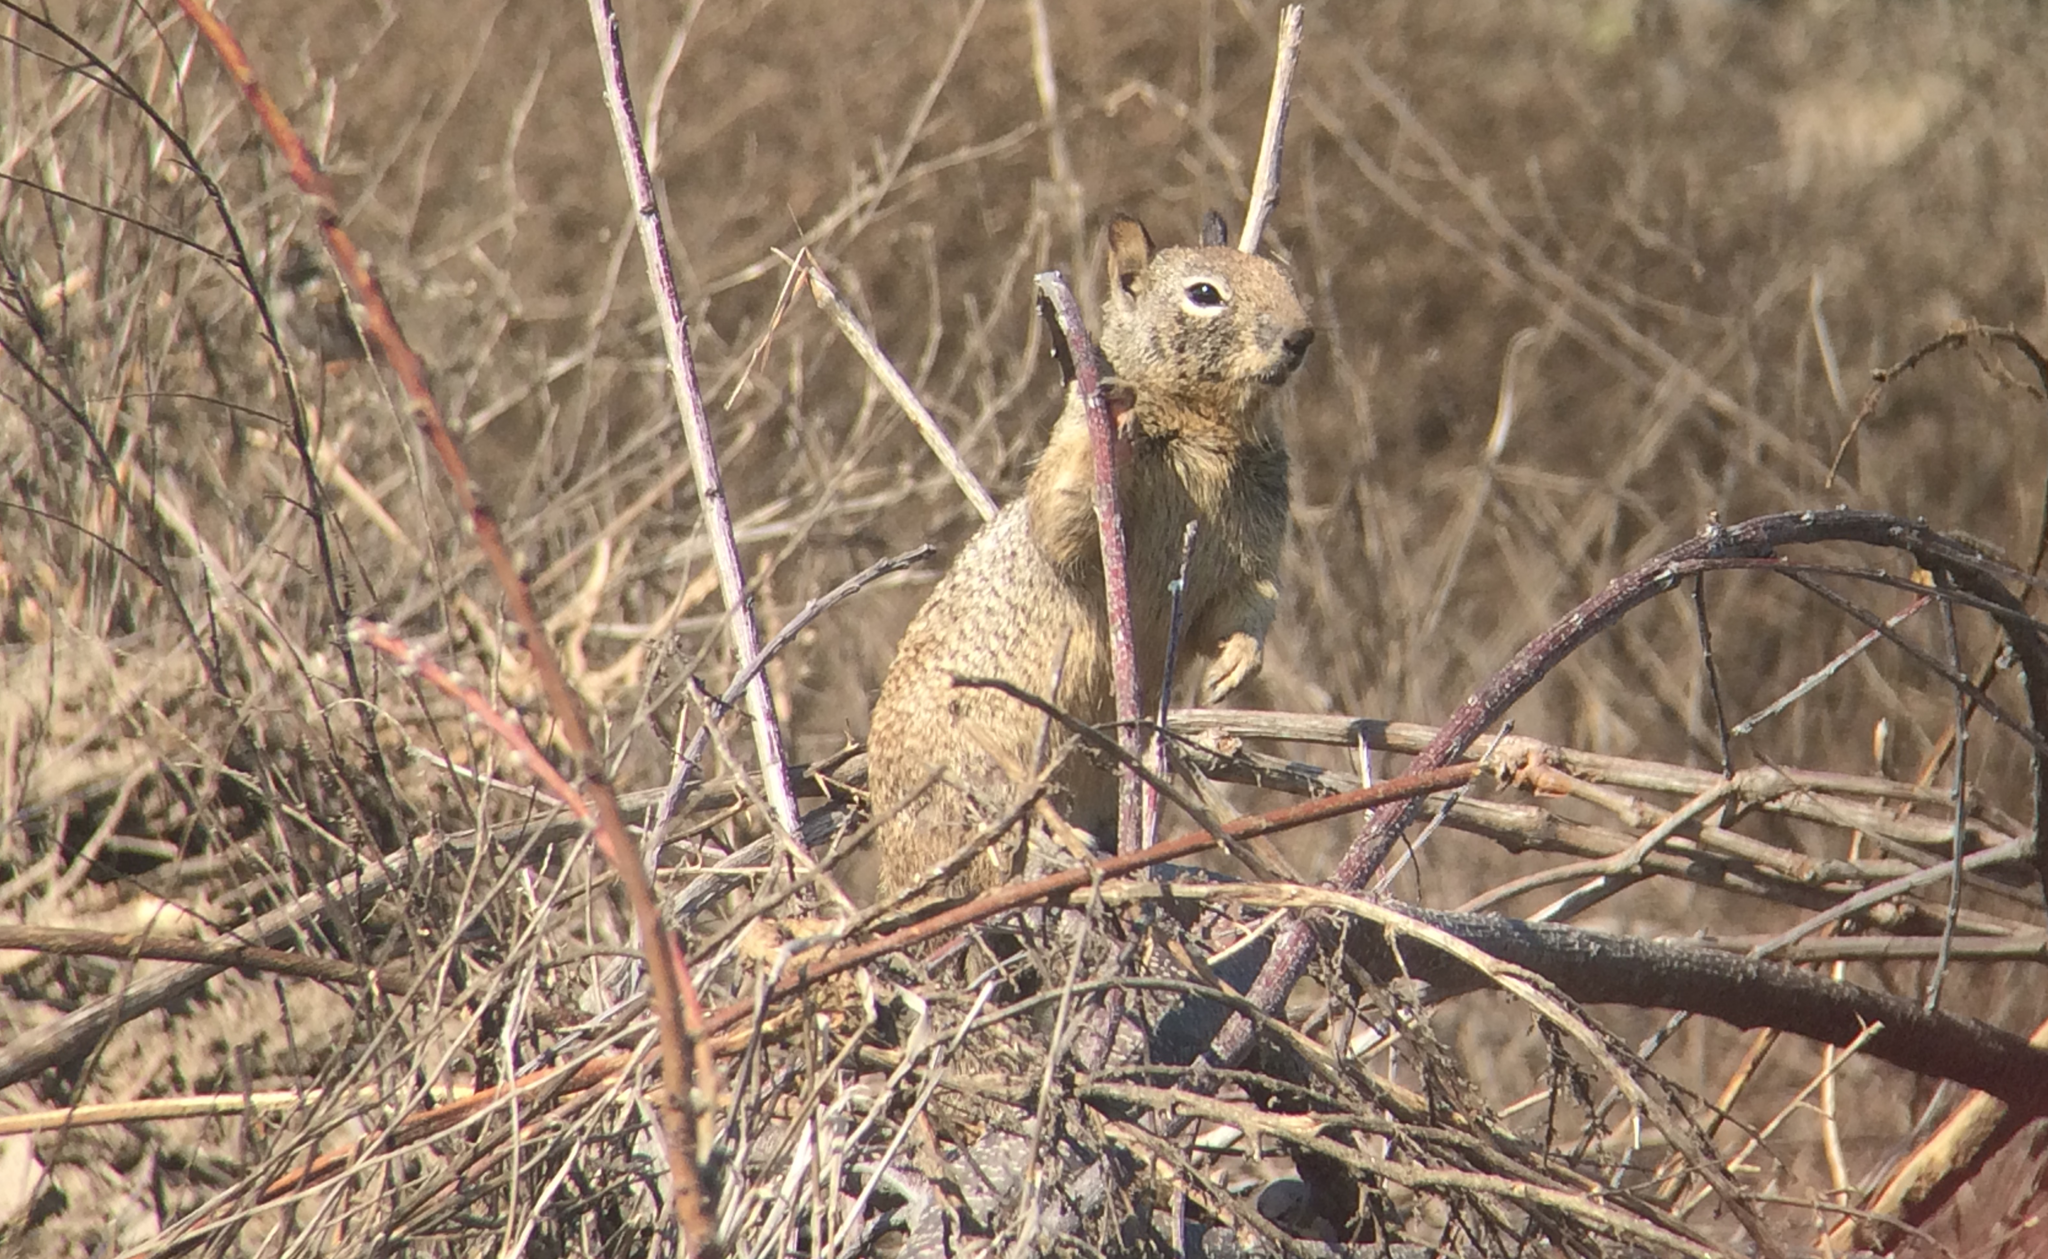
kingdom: Animalia
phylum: Chordata
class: Mammalia
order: Rodentia
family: Sciuridae
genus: Otospermophilus
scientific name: Otospermophilus beecheyi
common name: California ground squirrel
